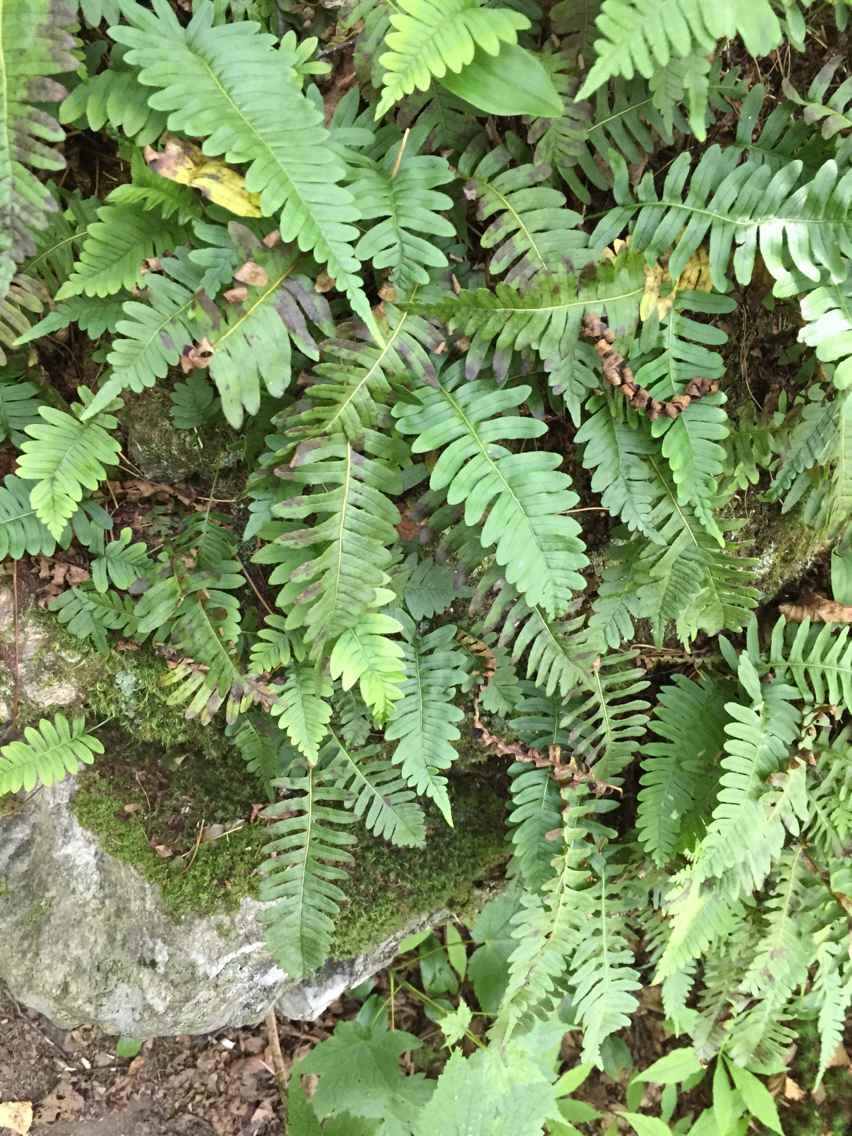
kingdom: Plantae
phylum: Tracheophyta
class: Polypodiopsida
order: Polypodiales
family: Polypodiaceae
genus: Polypodium
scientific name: Polypodium virginianum
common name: American wall fern
